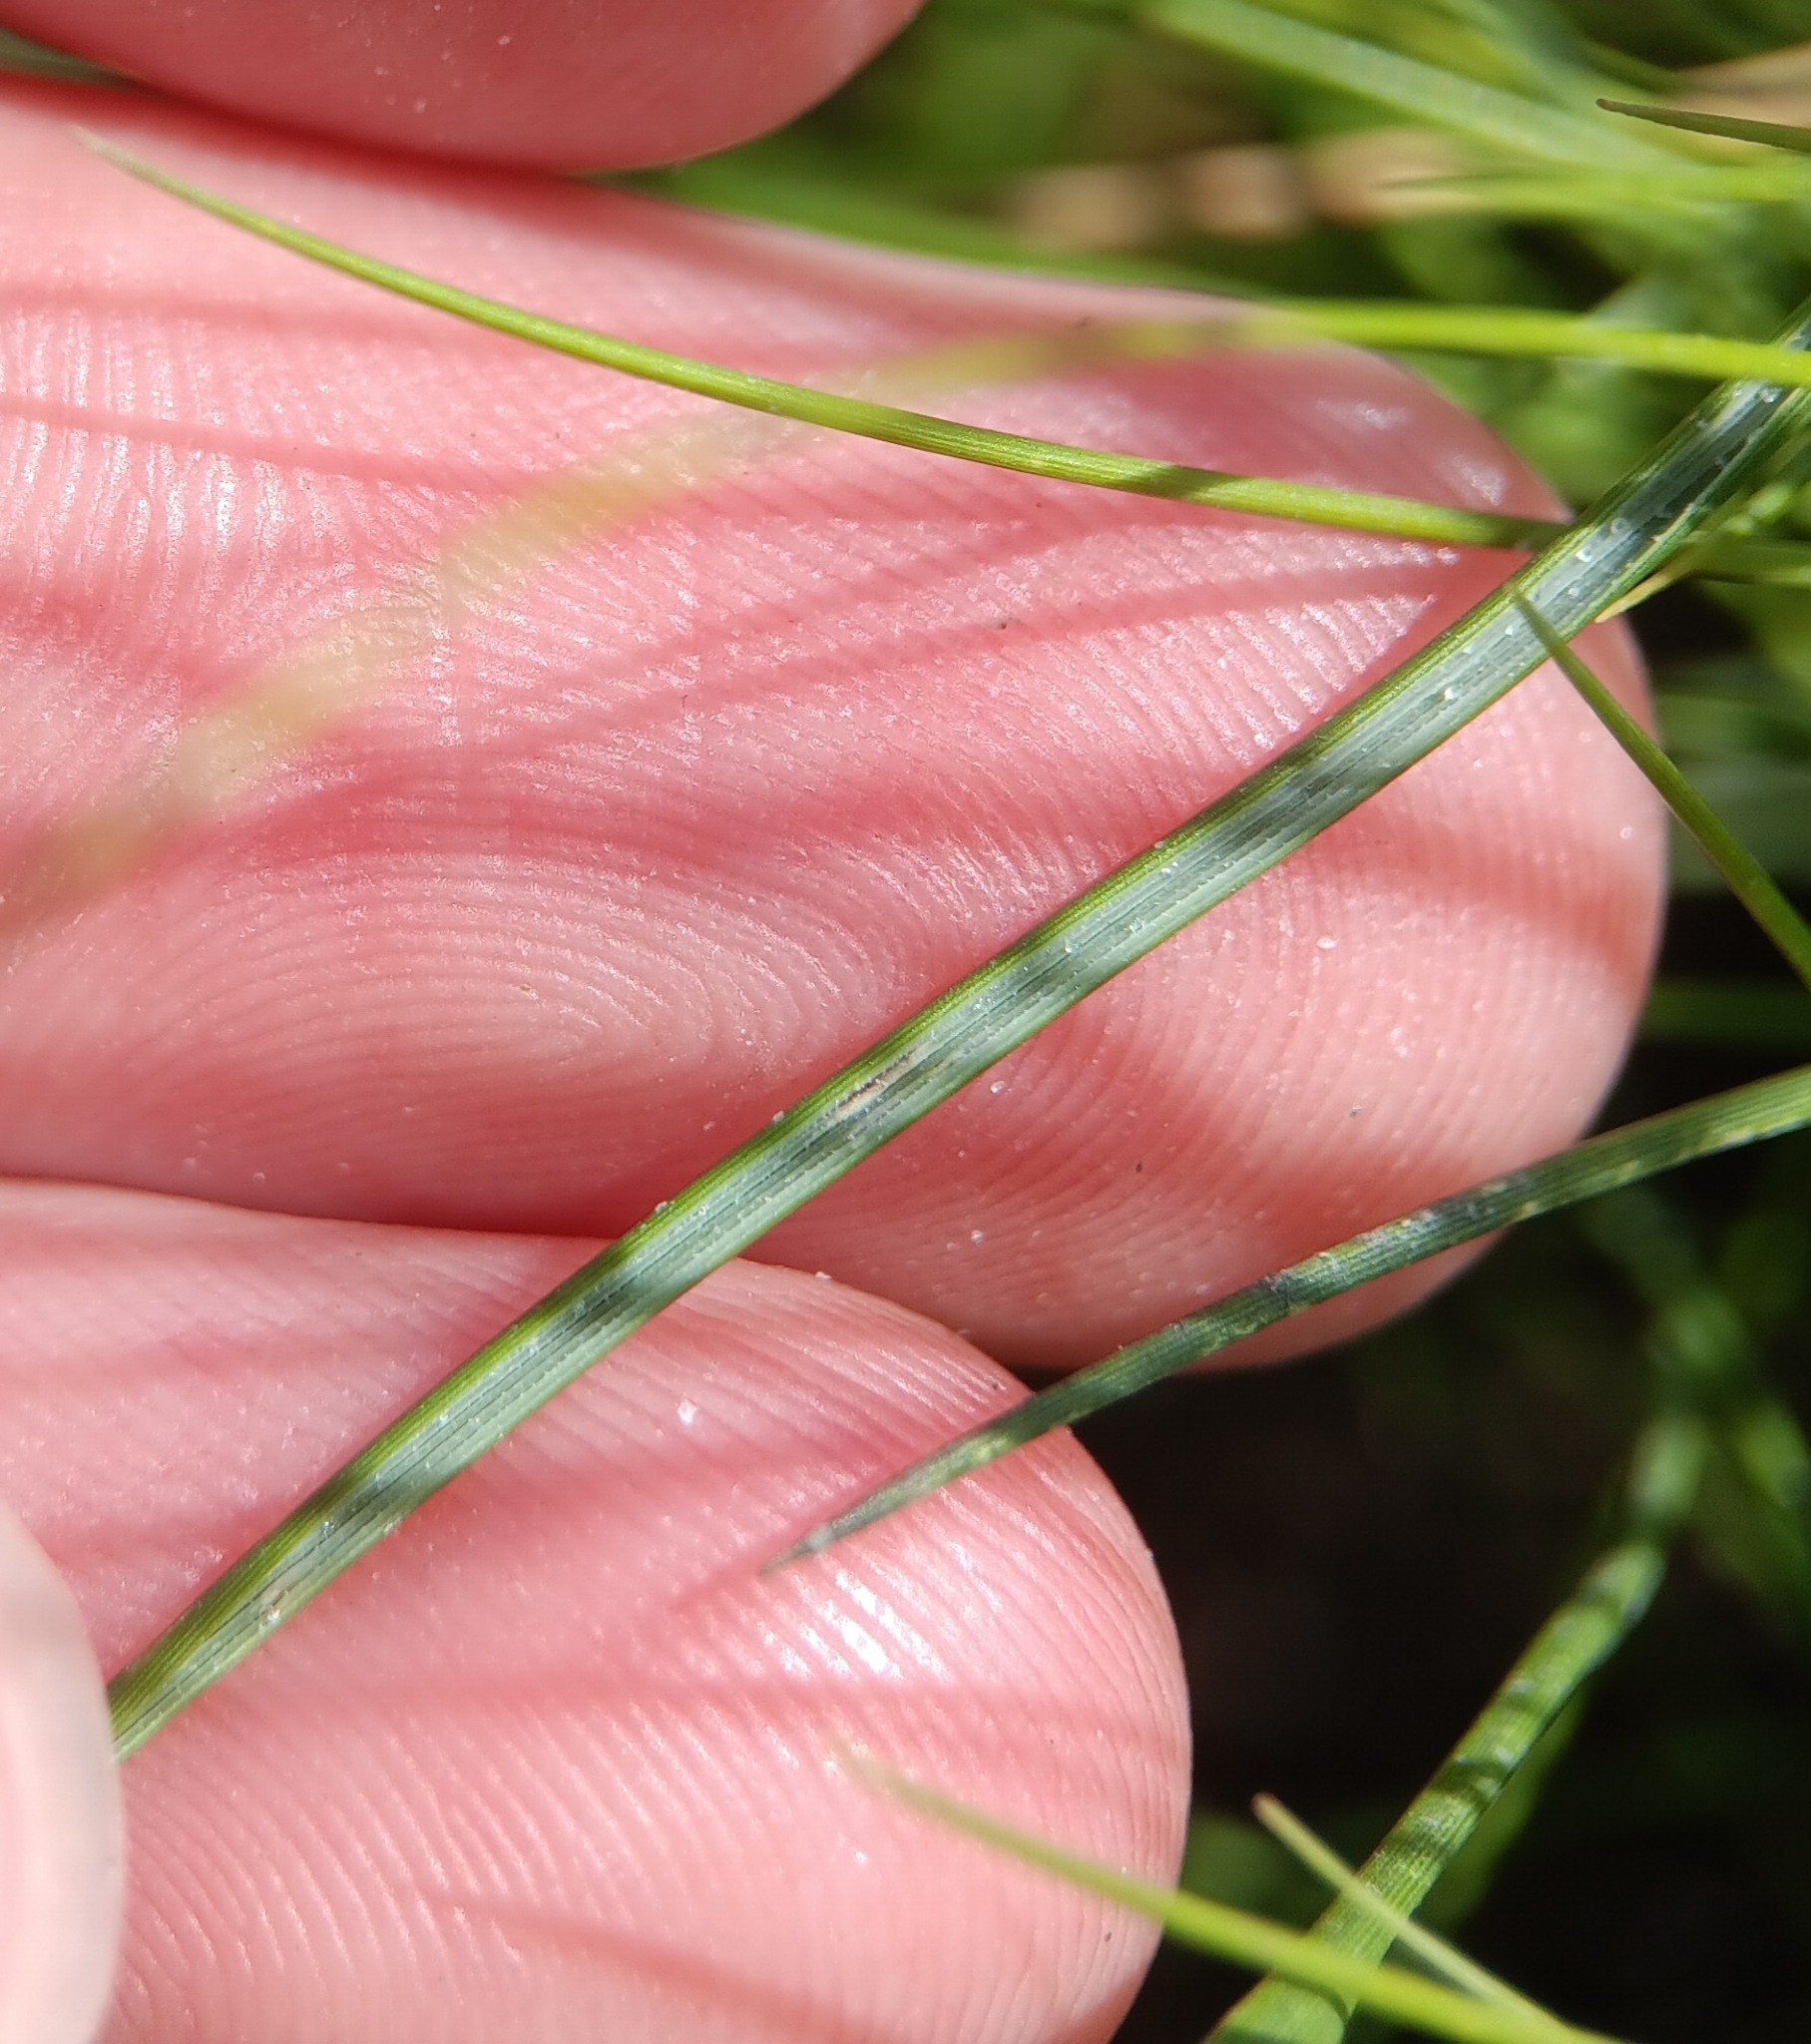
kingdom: Plantae
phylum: Tracheophyta
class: Liliopsida
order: Poales
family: Poaceae
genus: Sporobolus
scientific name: Sporobolus pumilus
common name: Highwater grass
